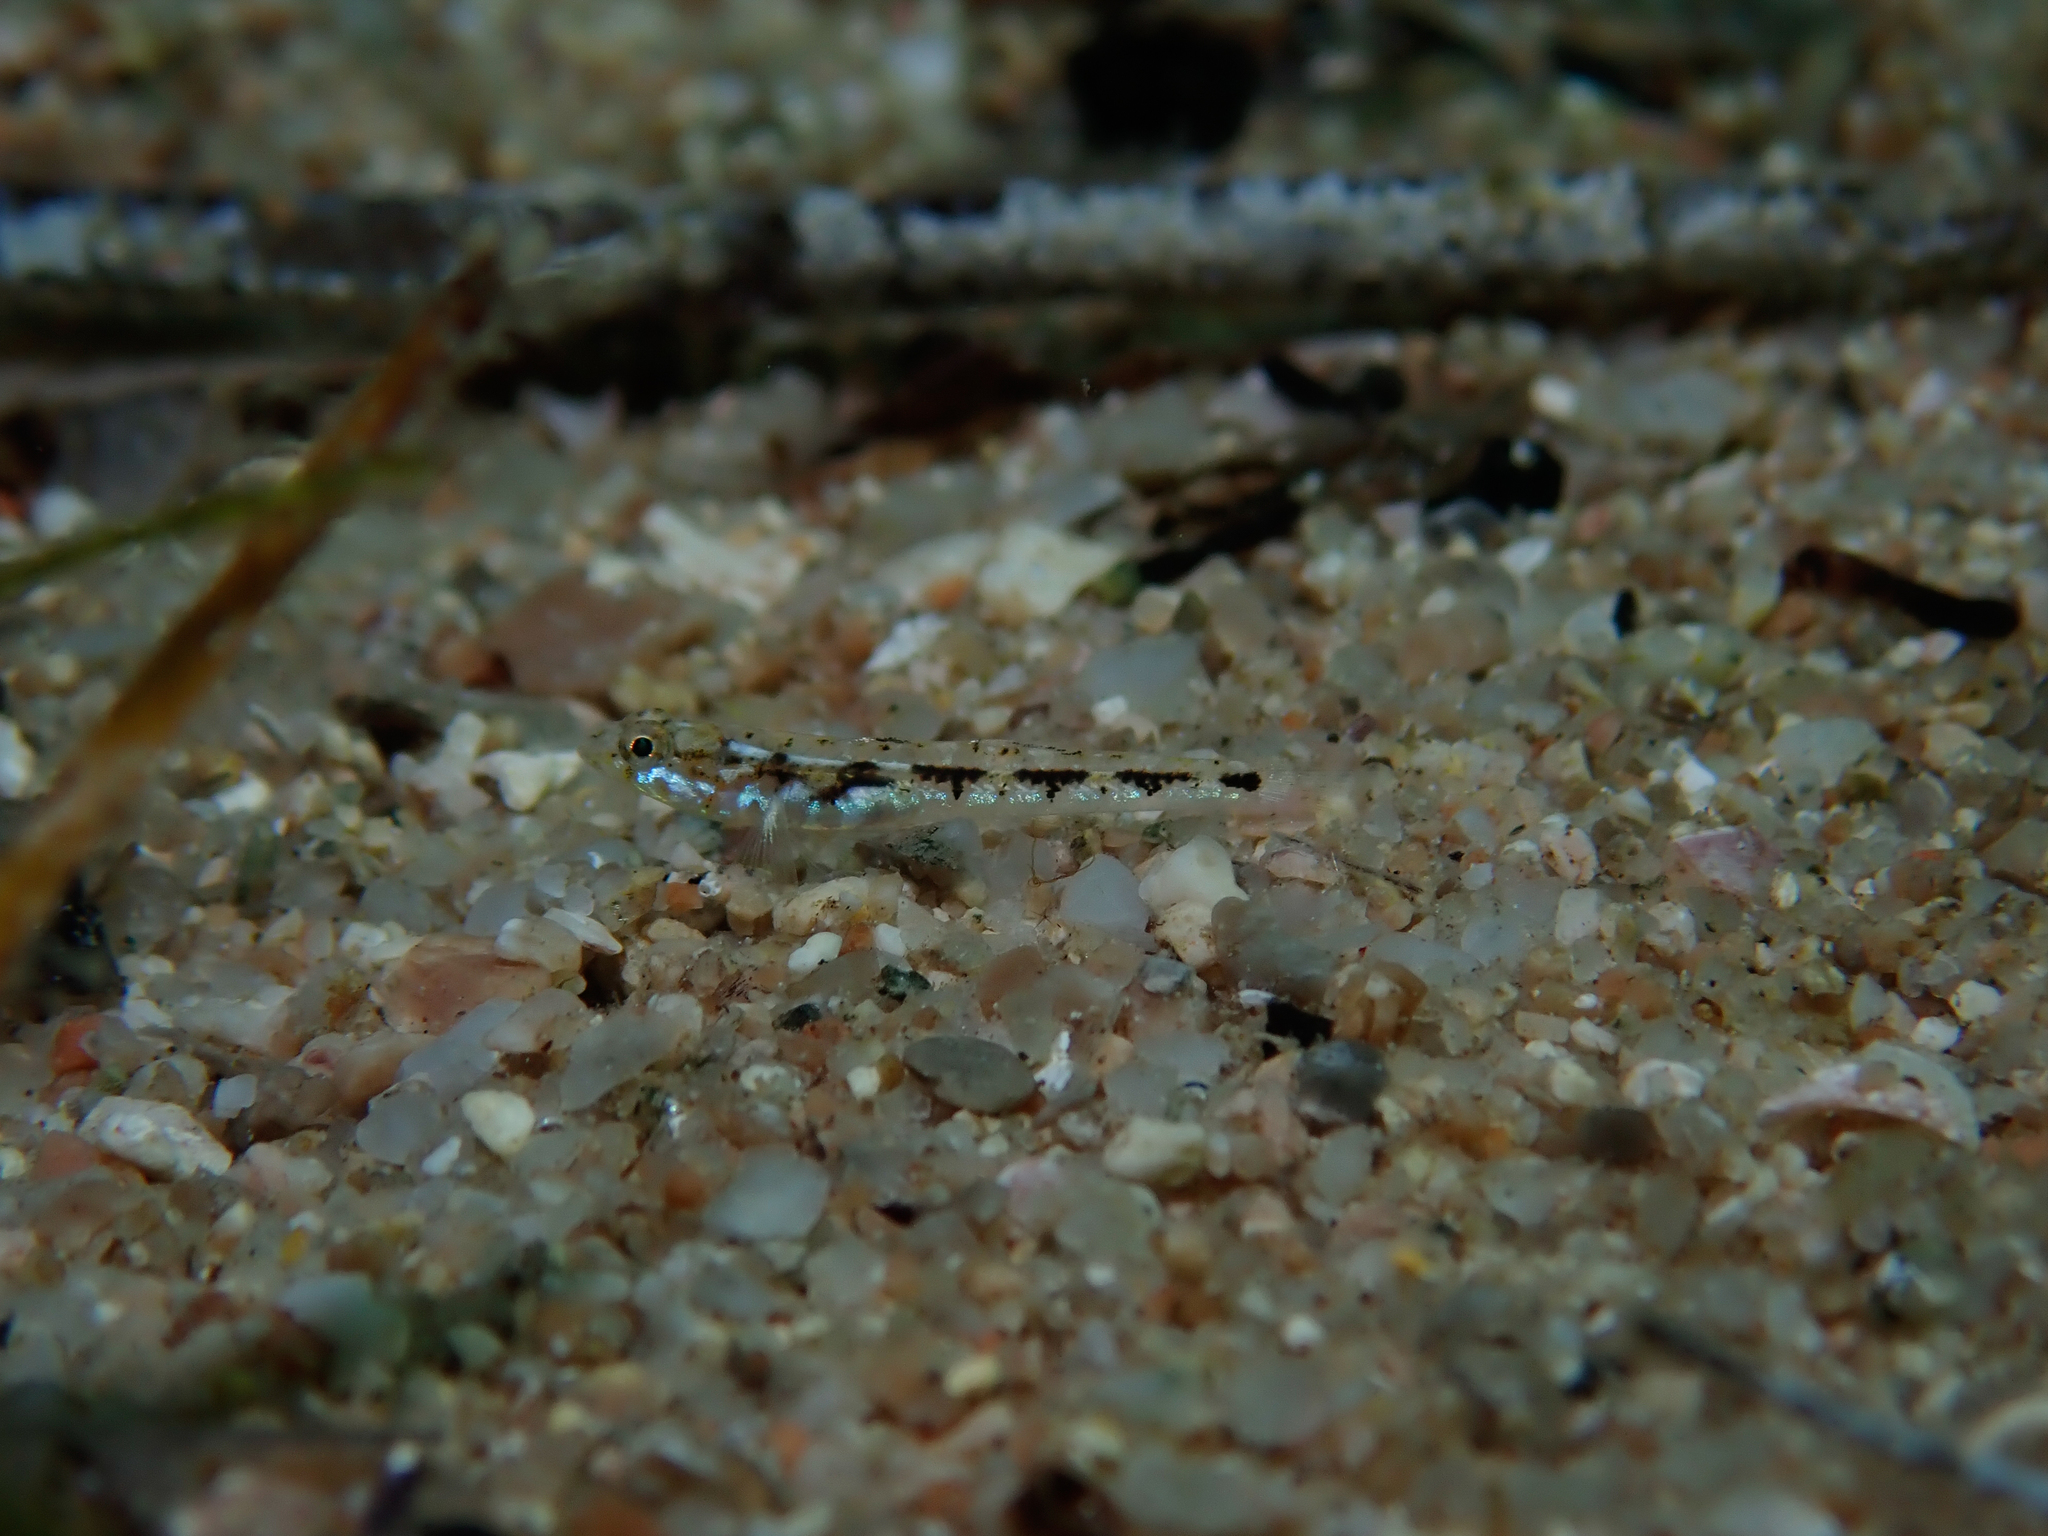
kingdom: Animalia
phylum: Chordata
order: Perciformes
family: Gobiidae
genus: Pomatoschistus
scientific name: Pomatoschistus bathi
